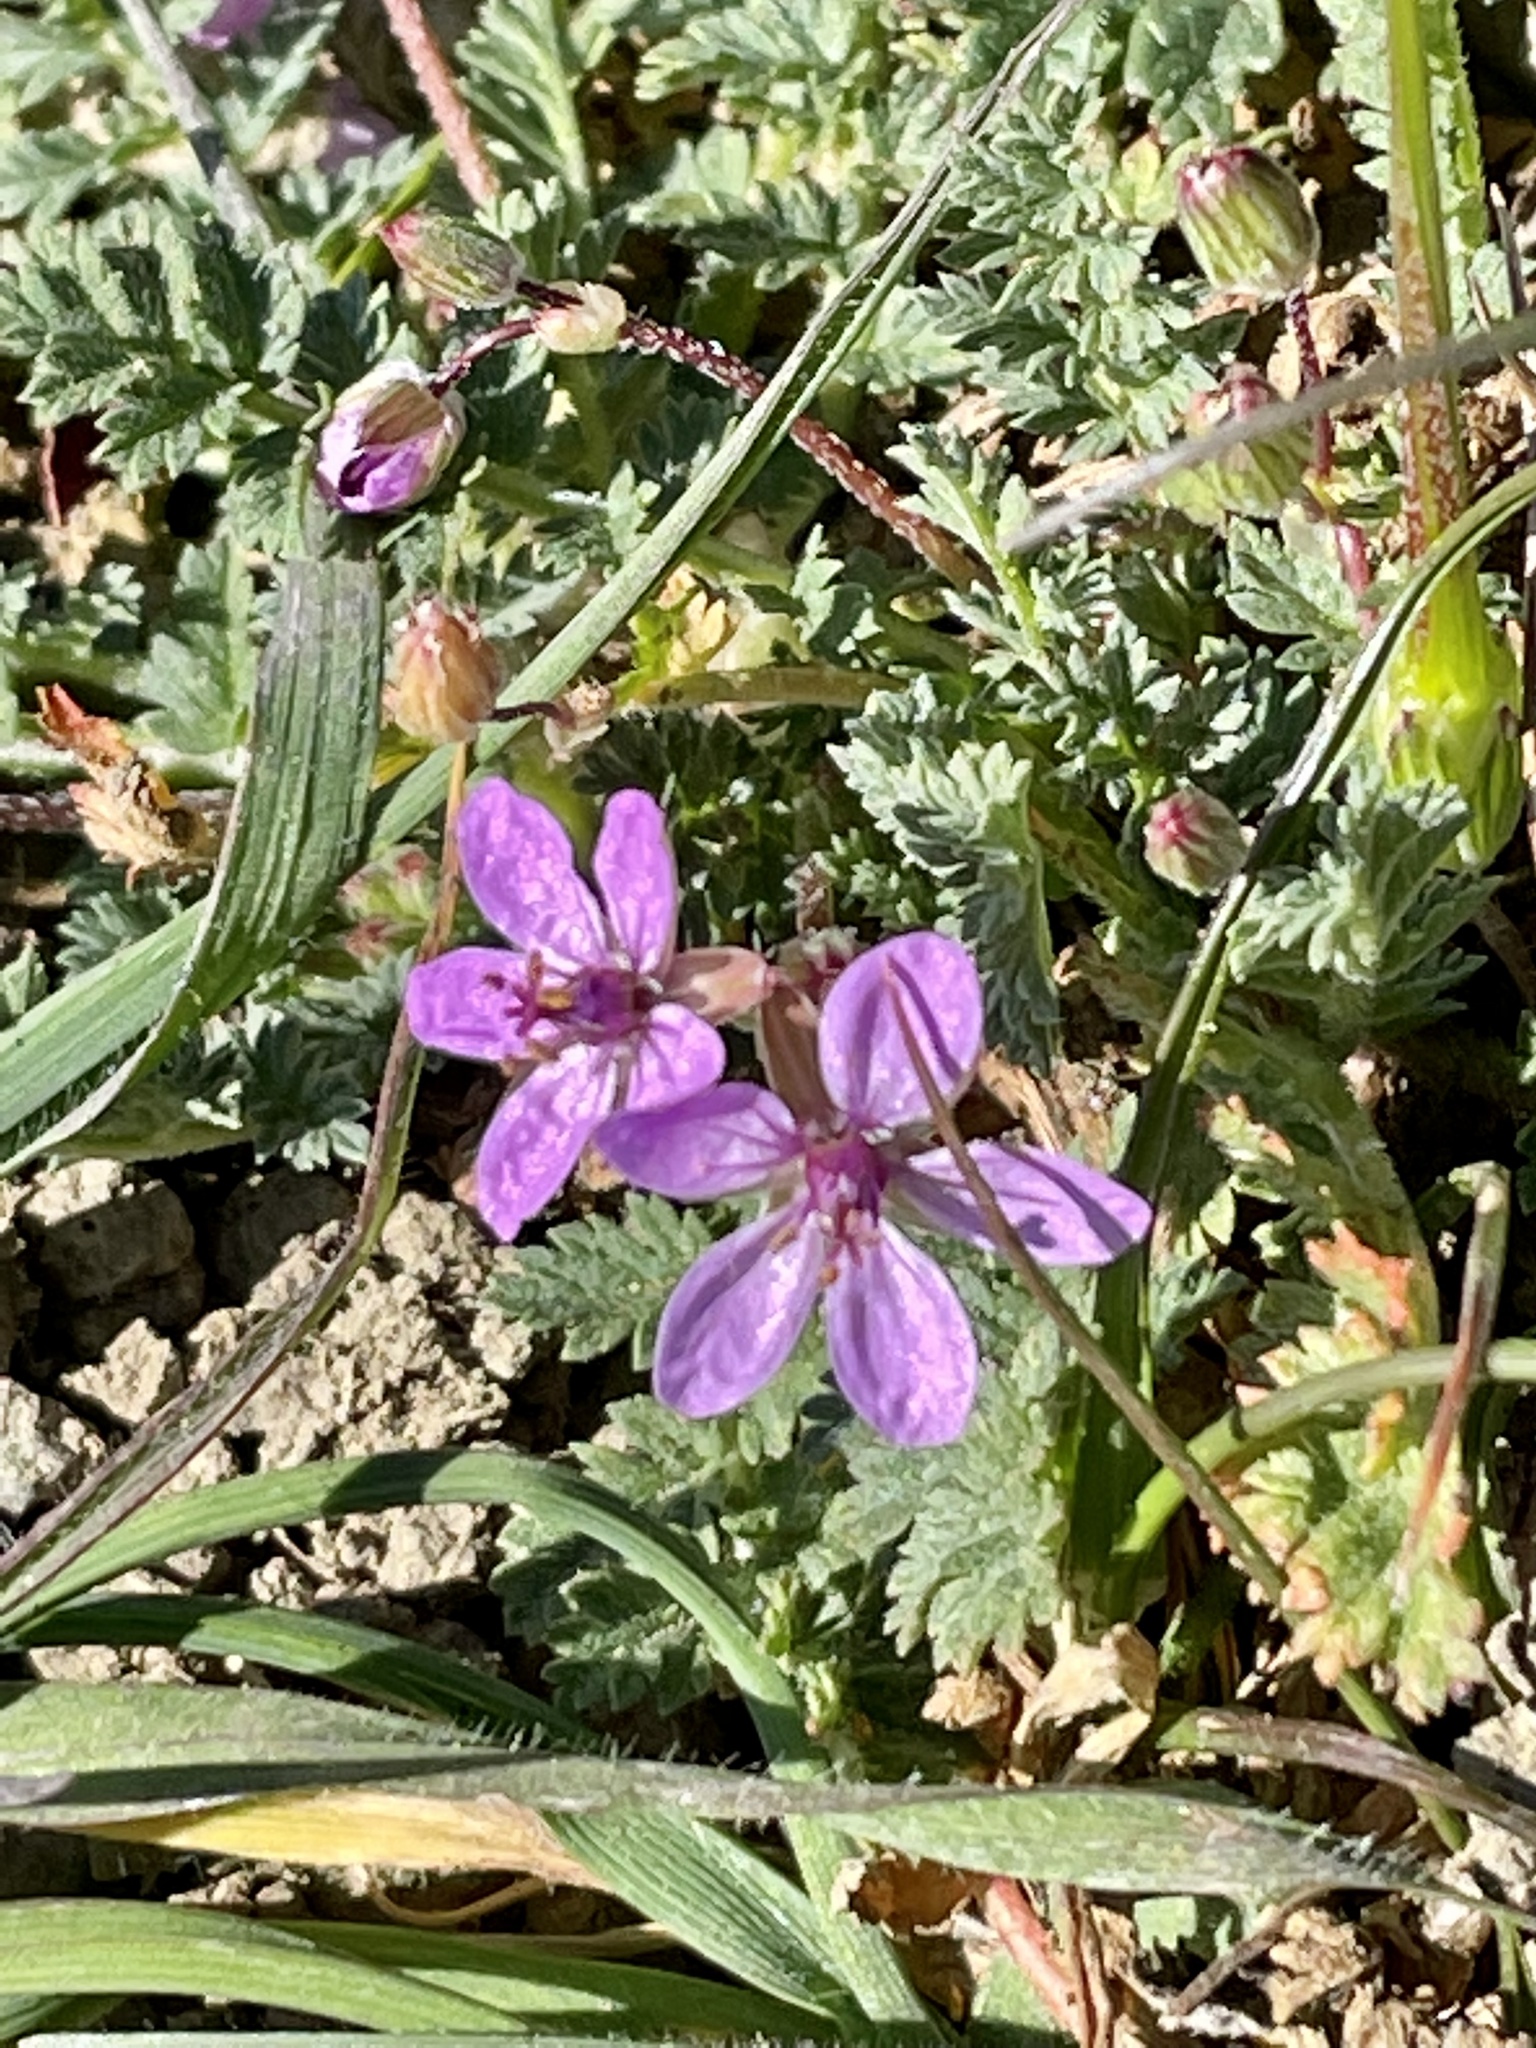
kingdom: Plantae
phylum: Tracheophyta
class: Magnoliopsida
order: Geraniales
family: Geraniaceae
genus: Erodium
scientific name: Erodium cicutarium
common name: Common stork's-bill
